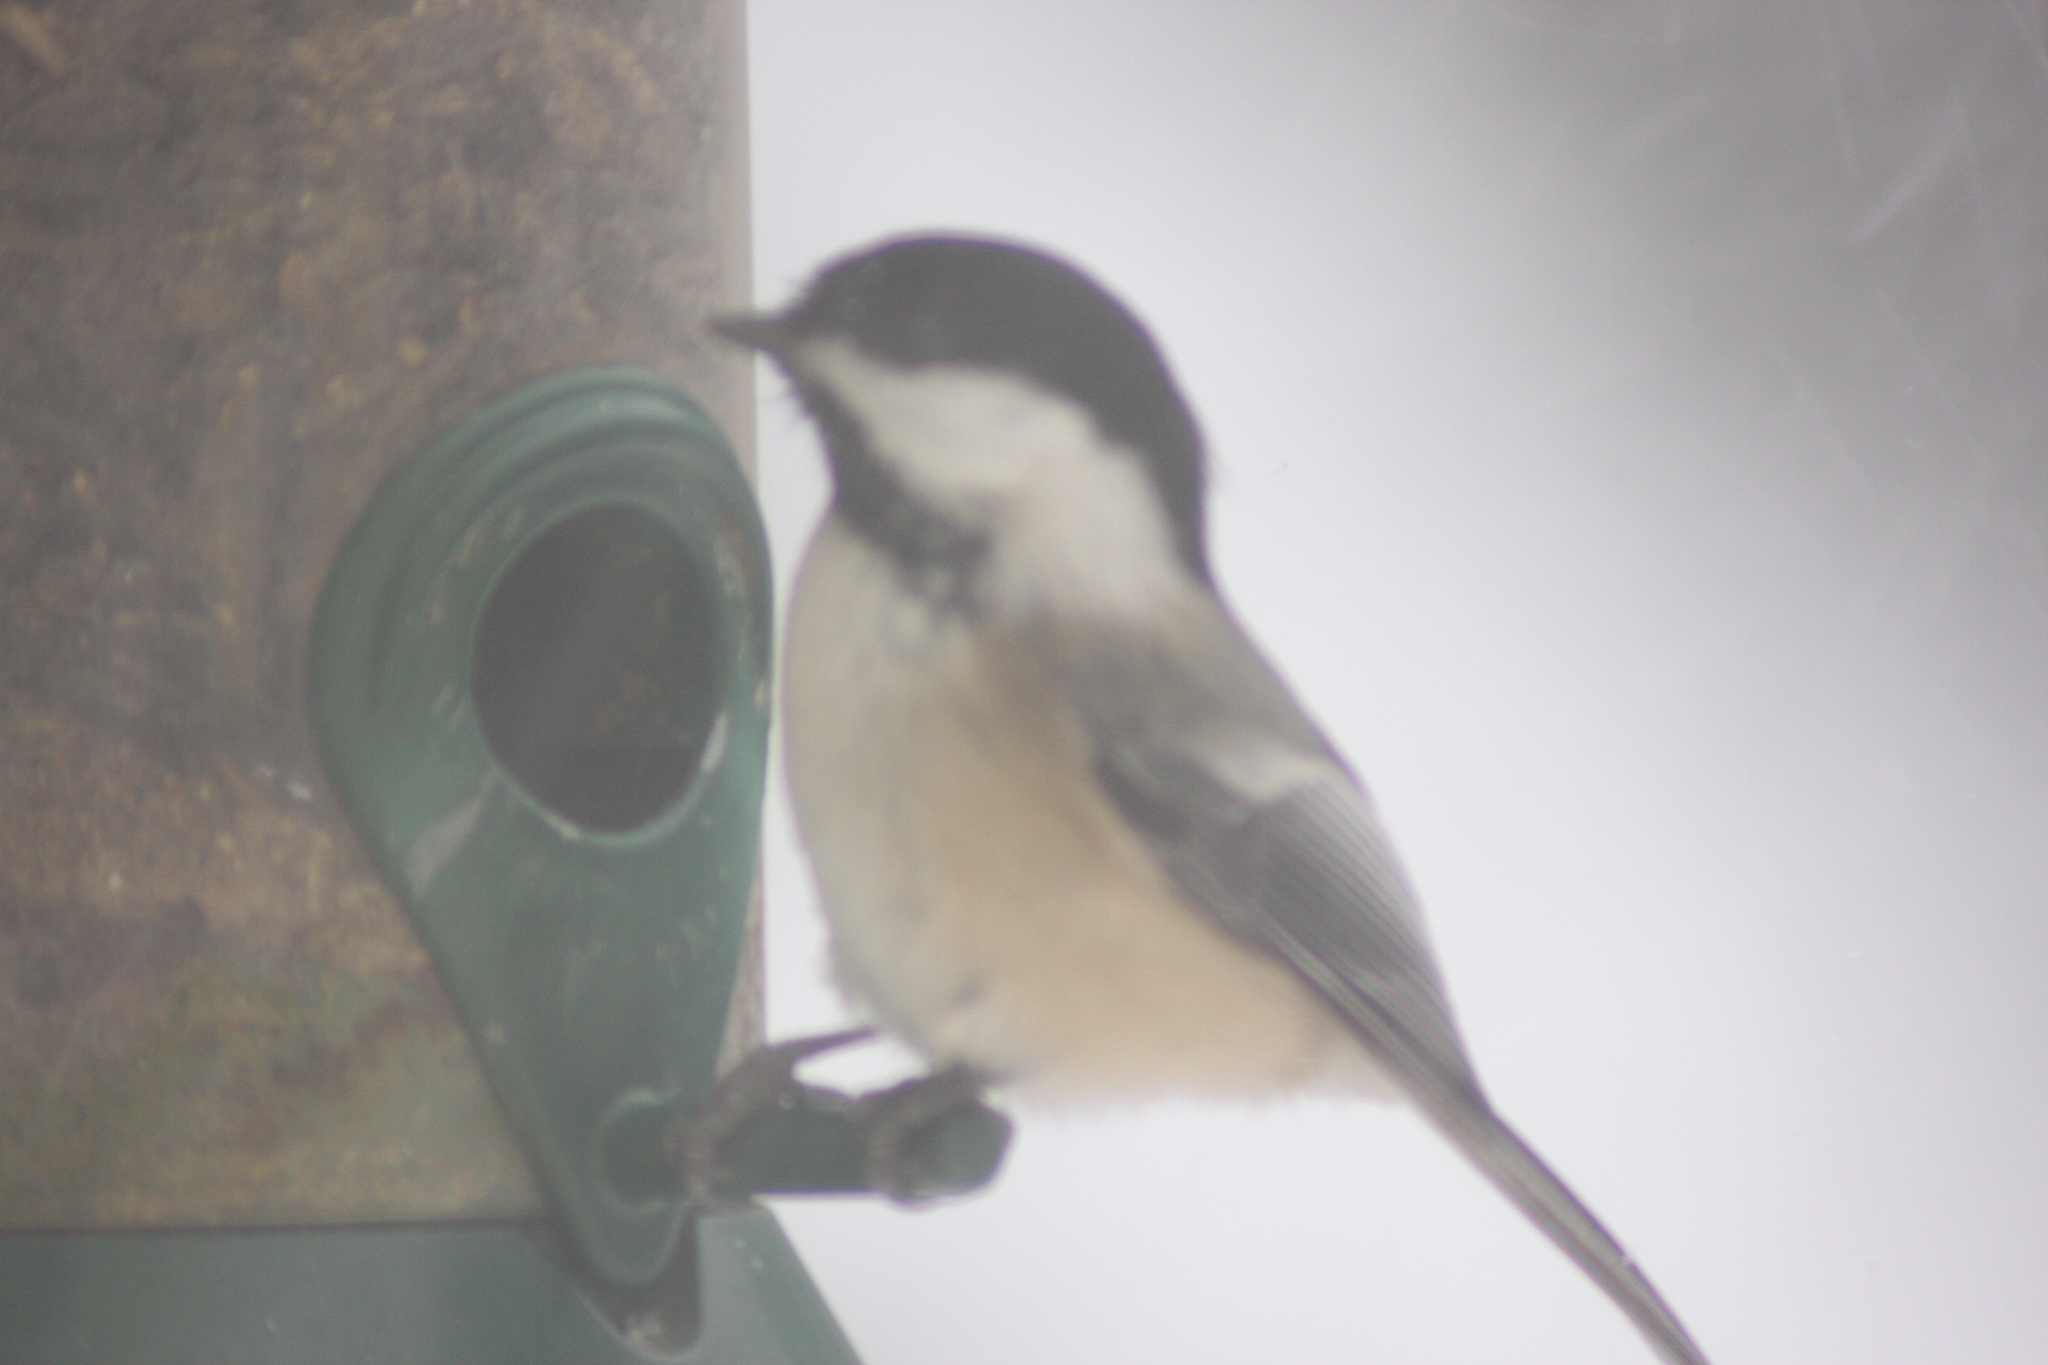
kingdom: Animalia
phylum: Chordata
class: Aves
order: Passeriformes
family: Paridae
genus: Poecile
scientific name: Poecile atricapillus
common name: Black-capped chickadee
